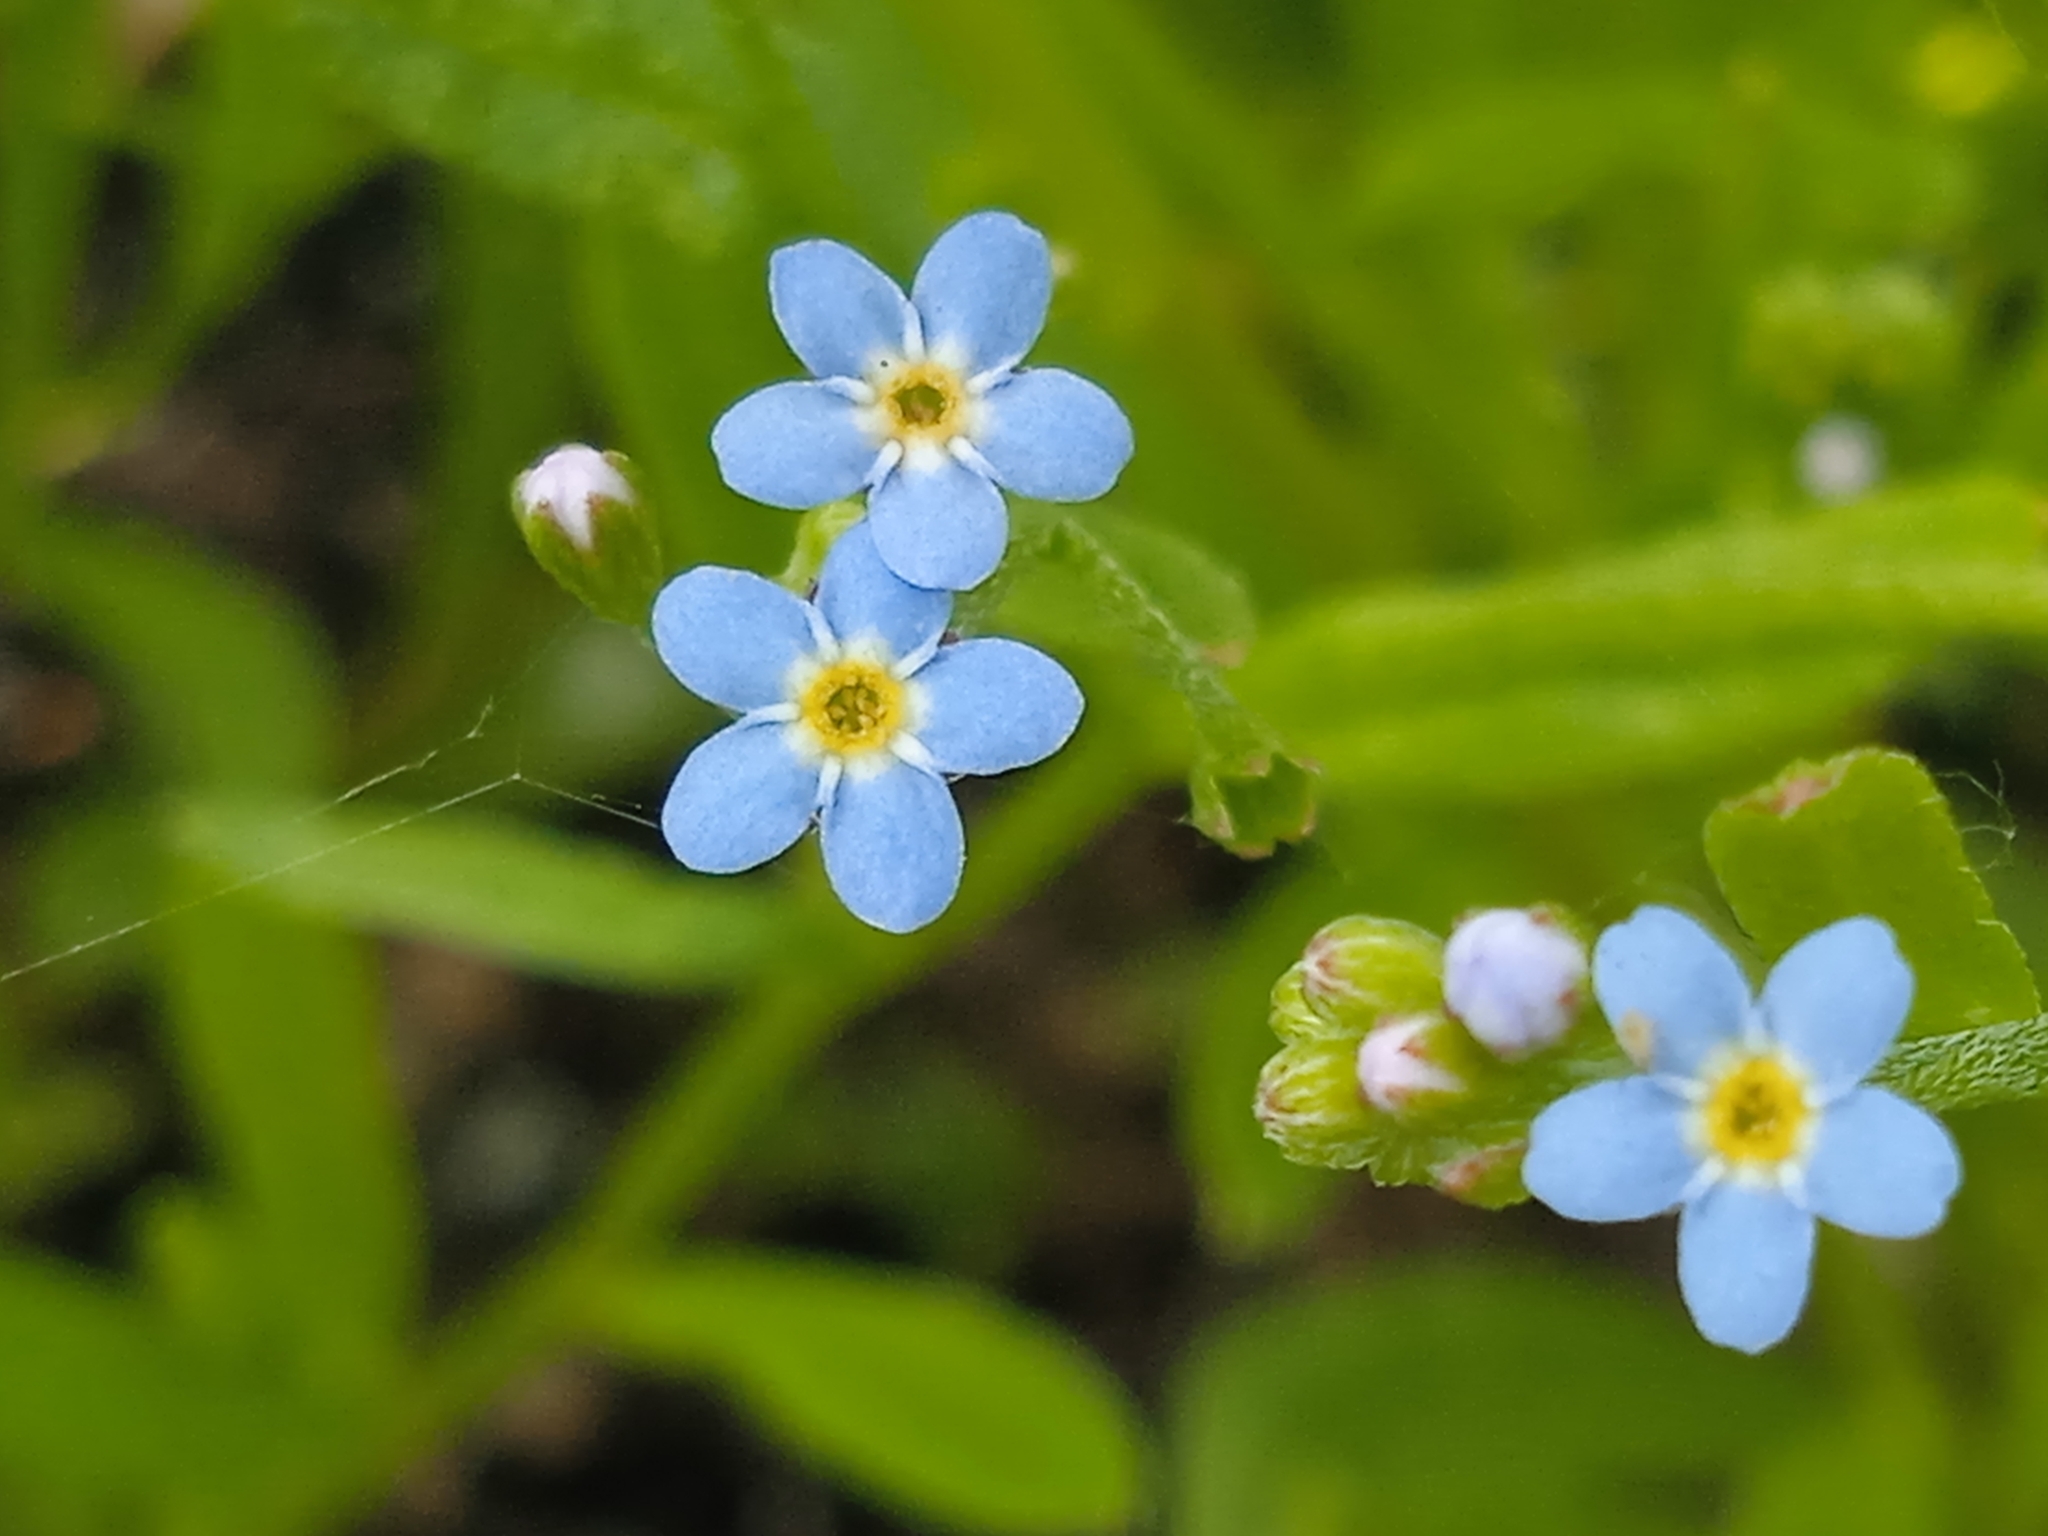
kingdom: Plantae
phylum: Tracheophyta
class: Magnoliopsida
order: Boraginales
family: Boraginaceae
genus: Myosotis
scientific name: Myosotis laxa
